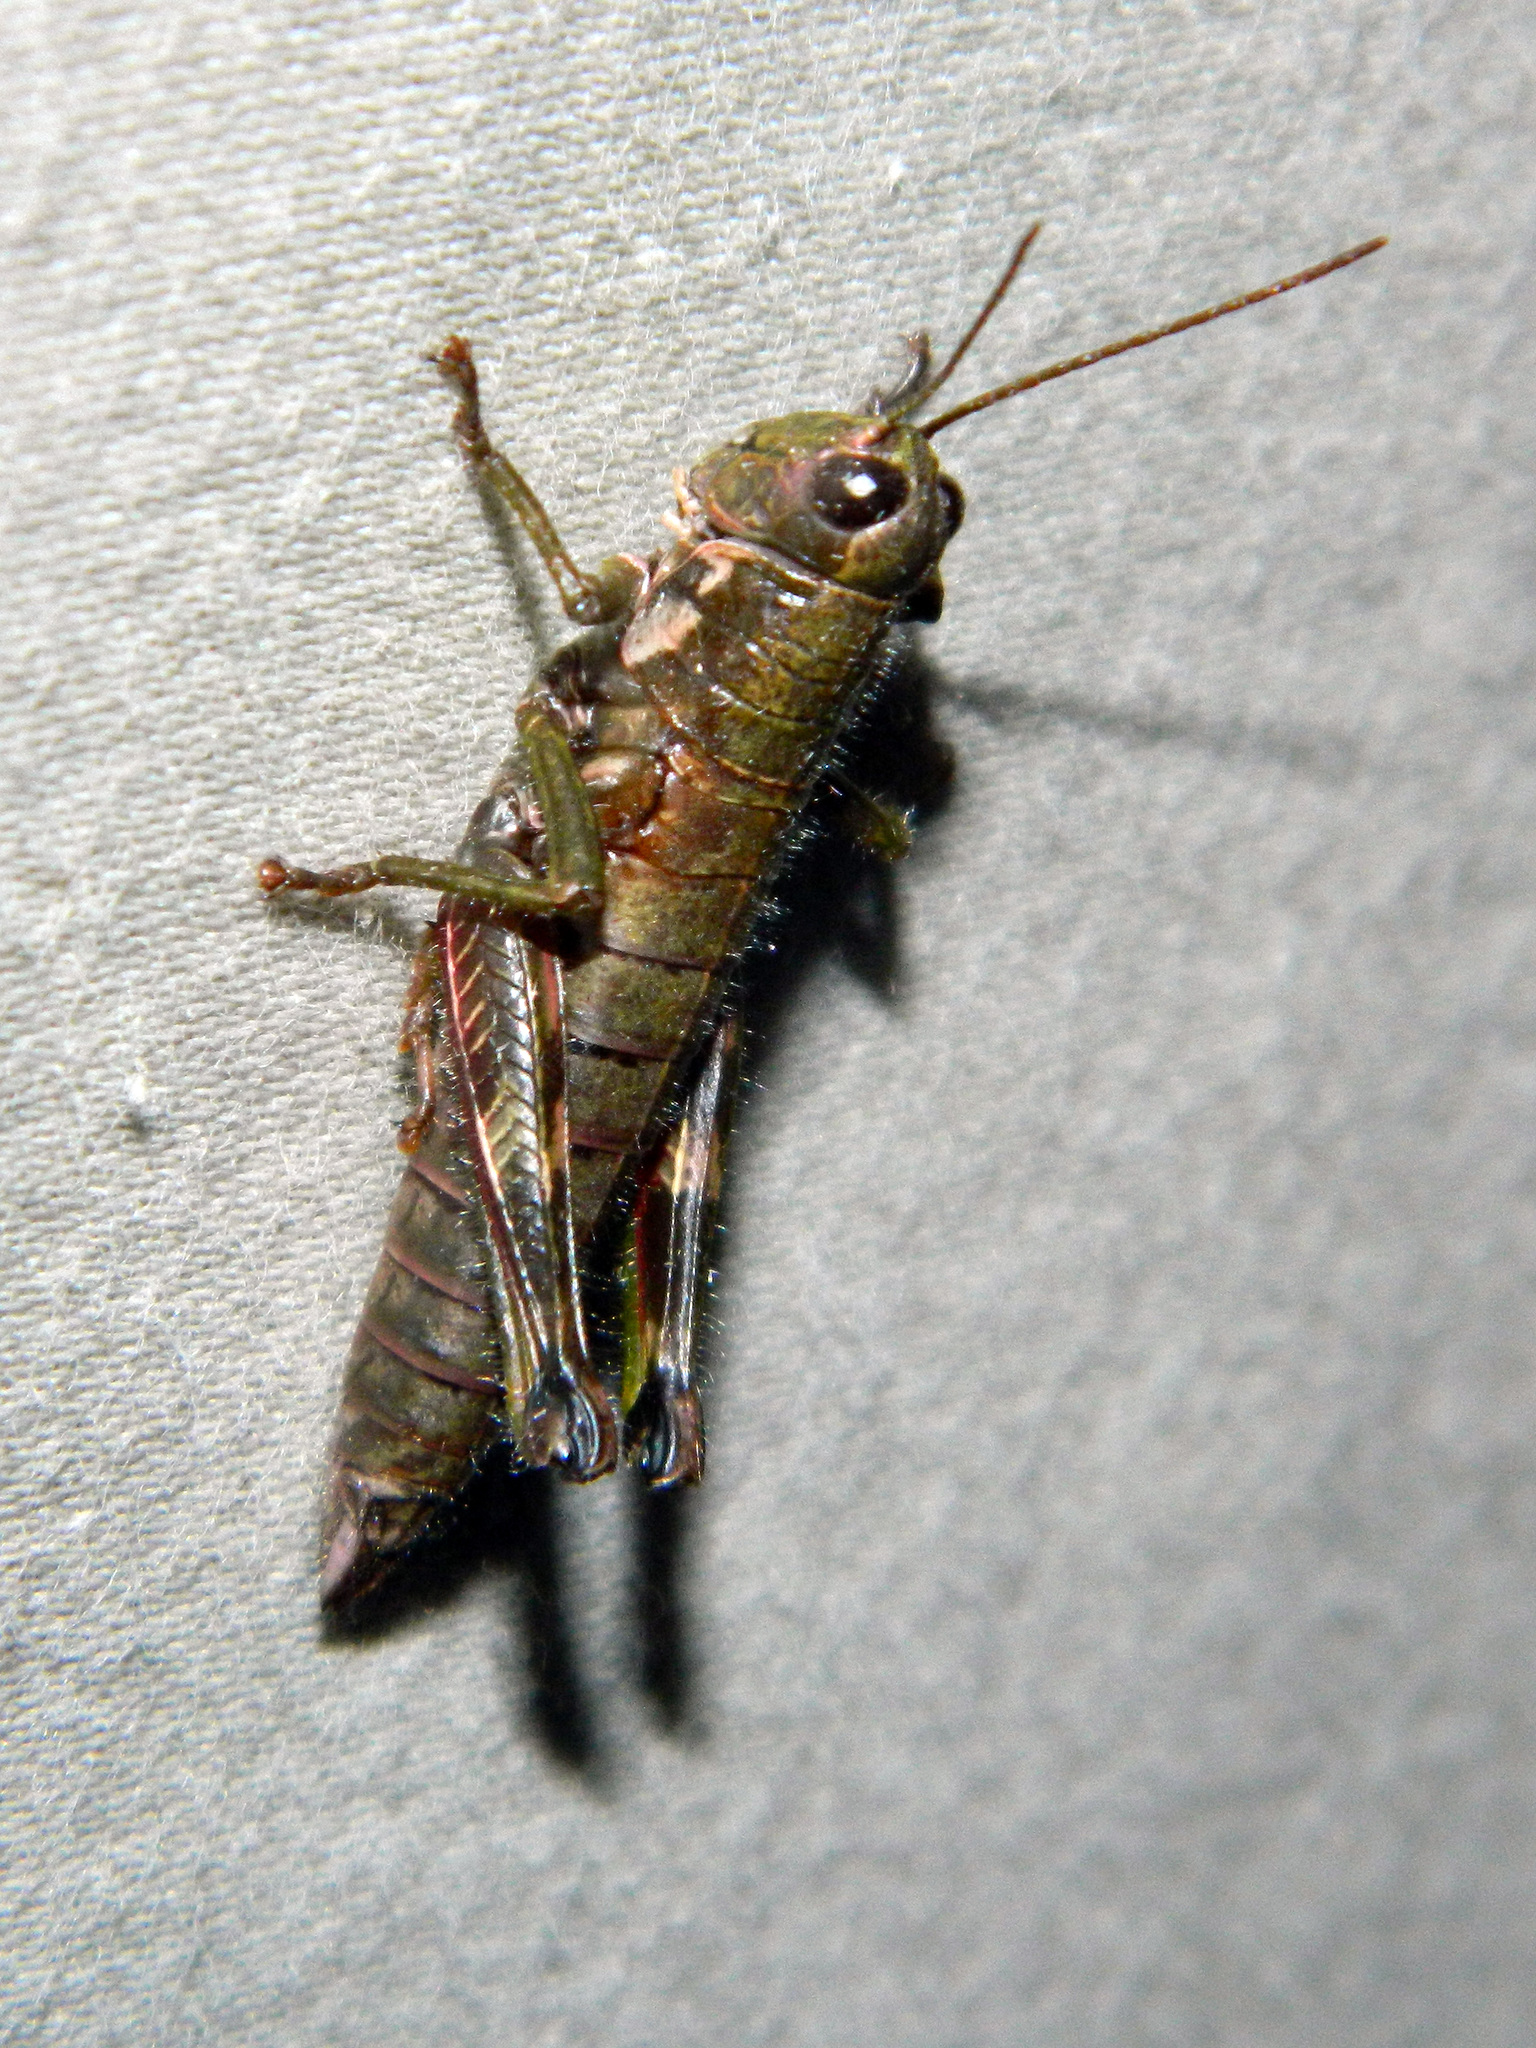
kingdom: Animalia
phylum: Arthropoda
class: Insecta
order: Orthoptera
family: Acrididae
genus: Booneacris
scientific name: Booneacris glacialis
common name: Wingless mountain grasshopper
